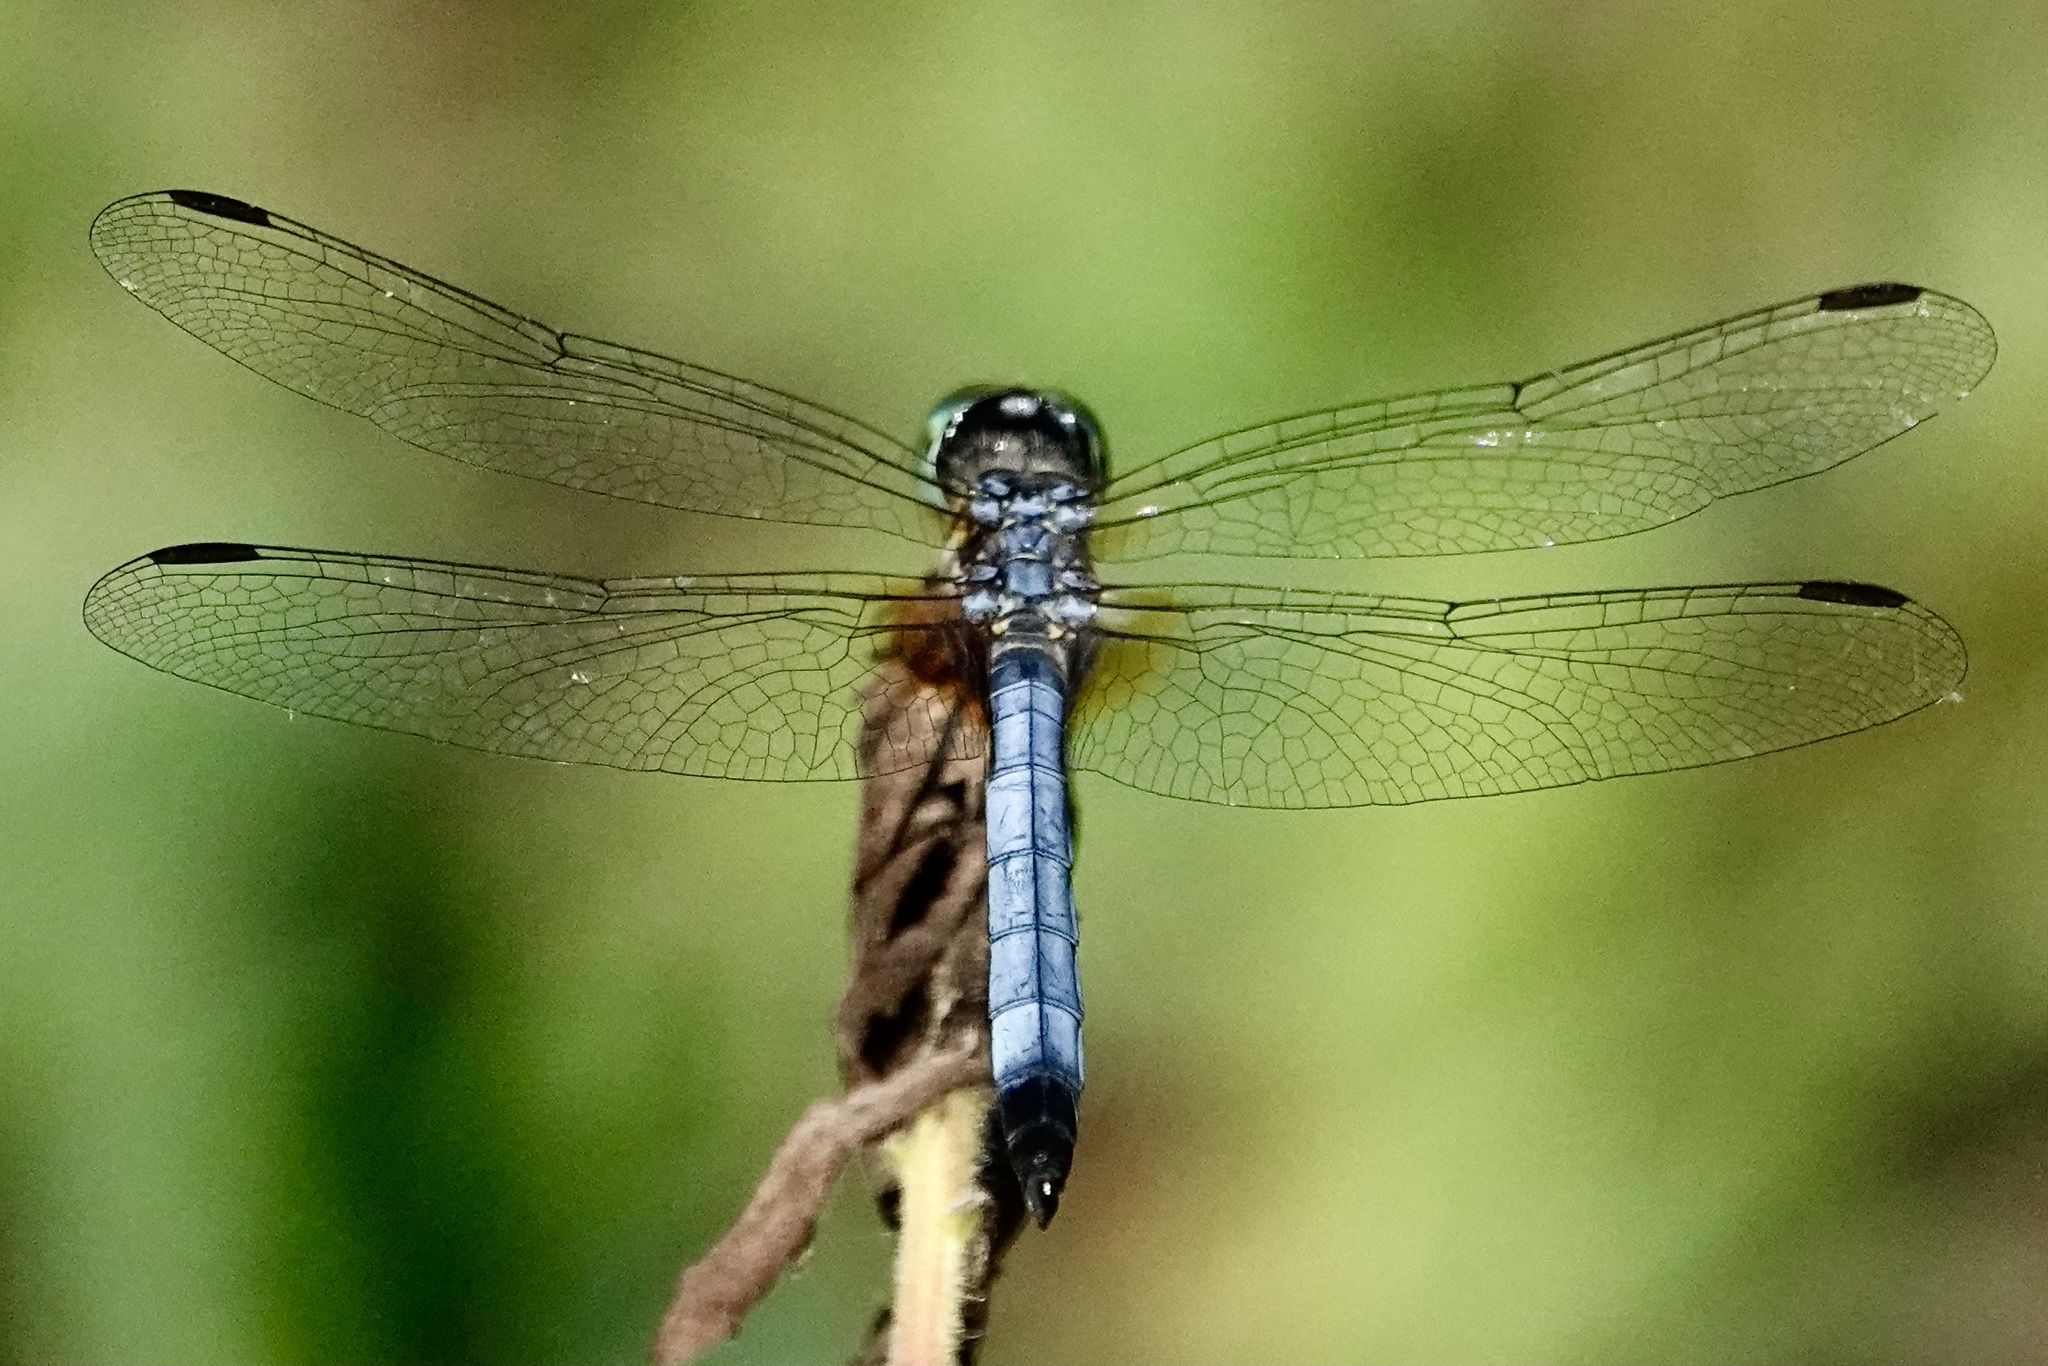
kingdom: Animalia
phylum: Arthropoda
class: Insecta
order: Odonata
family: Libellulidae
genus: Pachydiplax
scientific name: Pachydiplax longipennis
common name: Blue dasher
